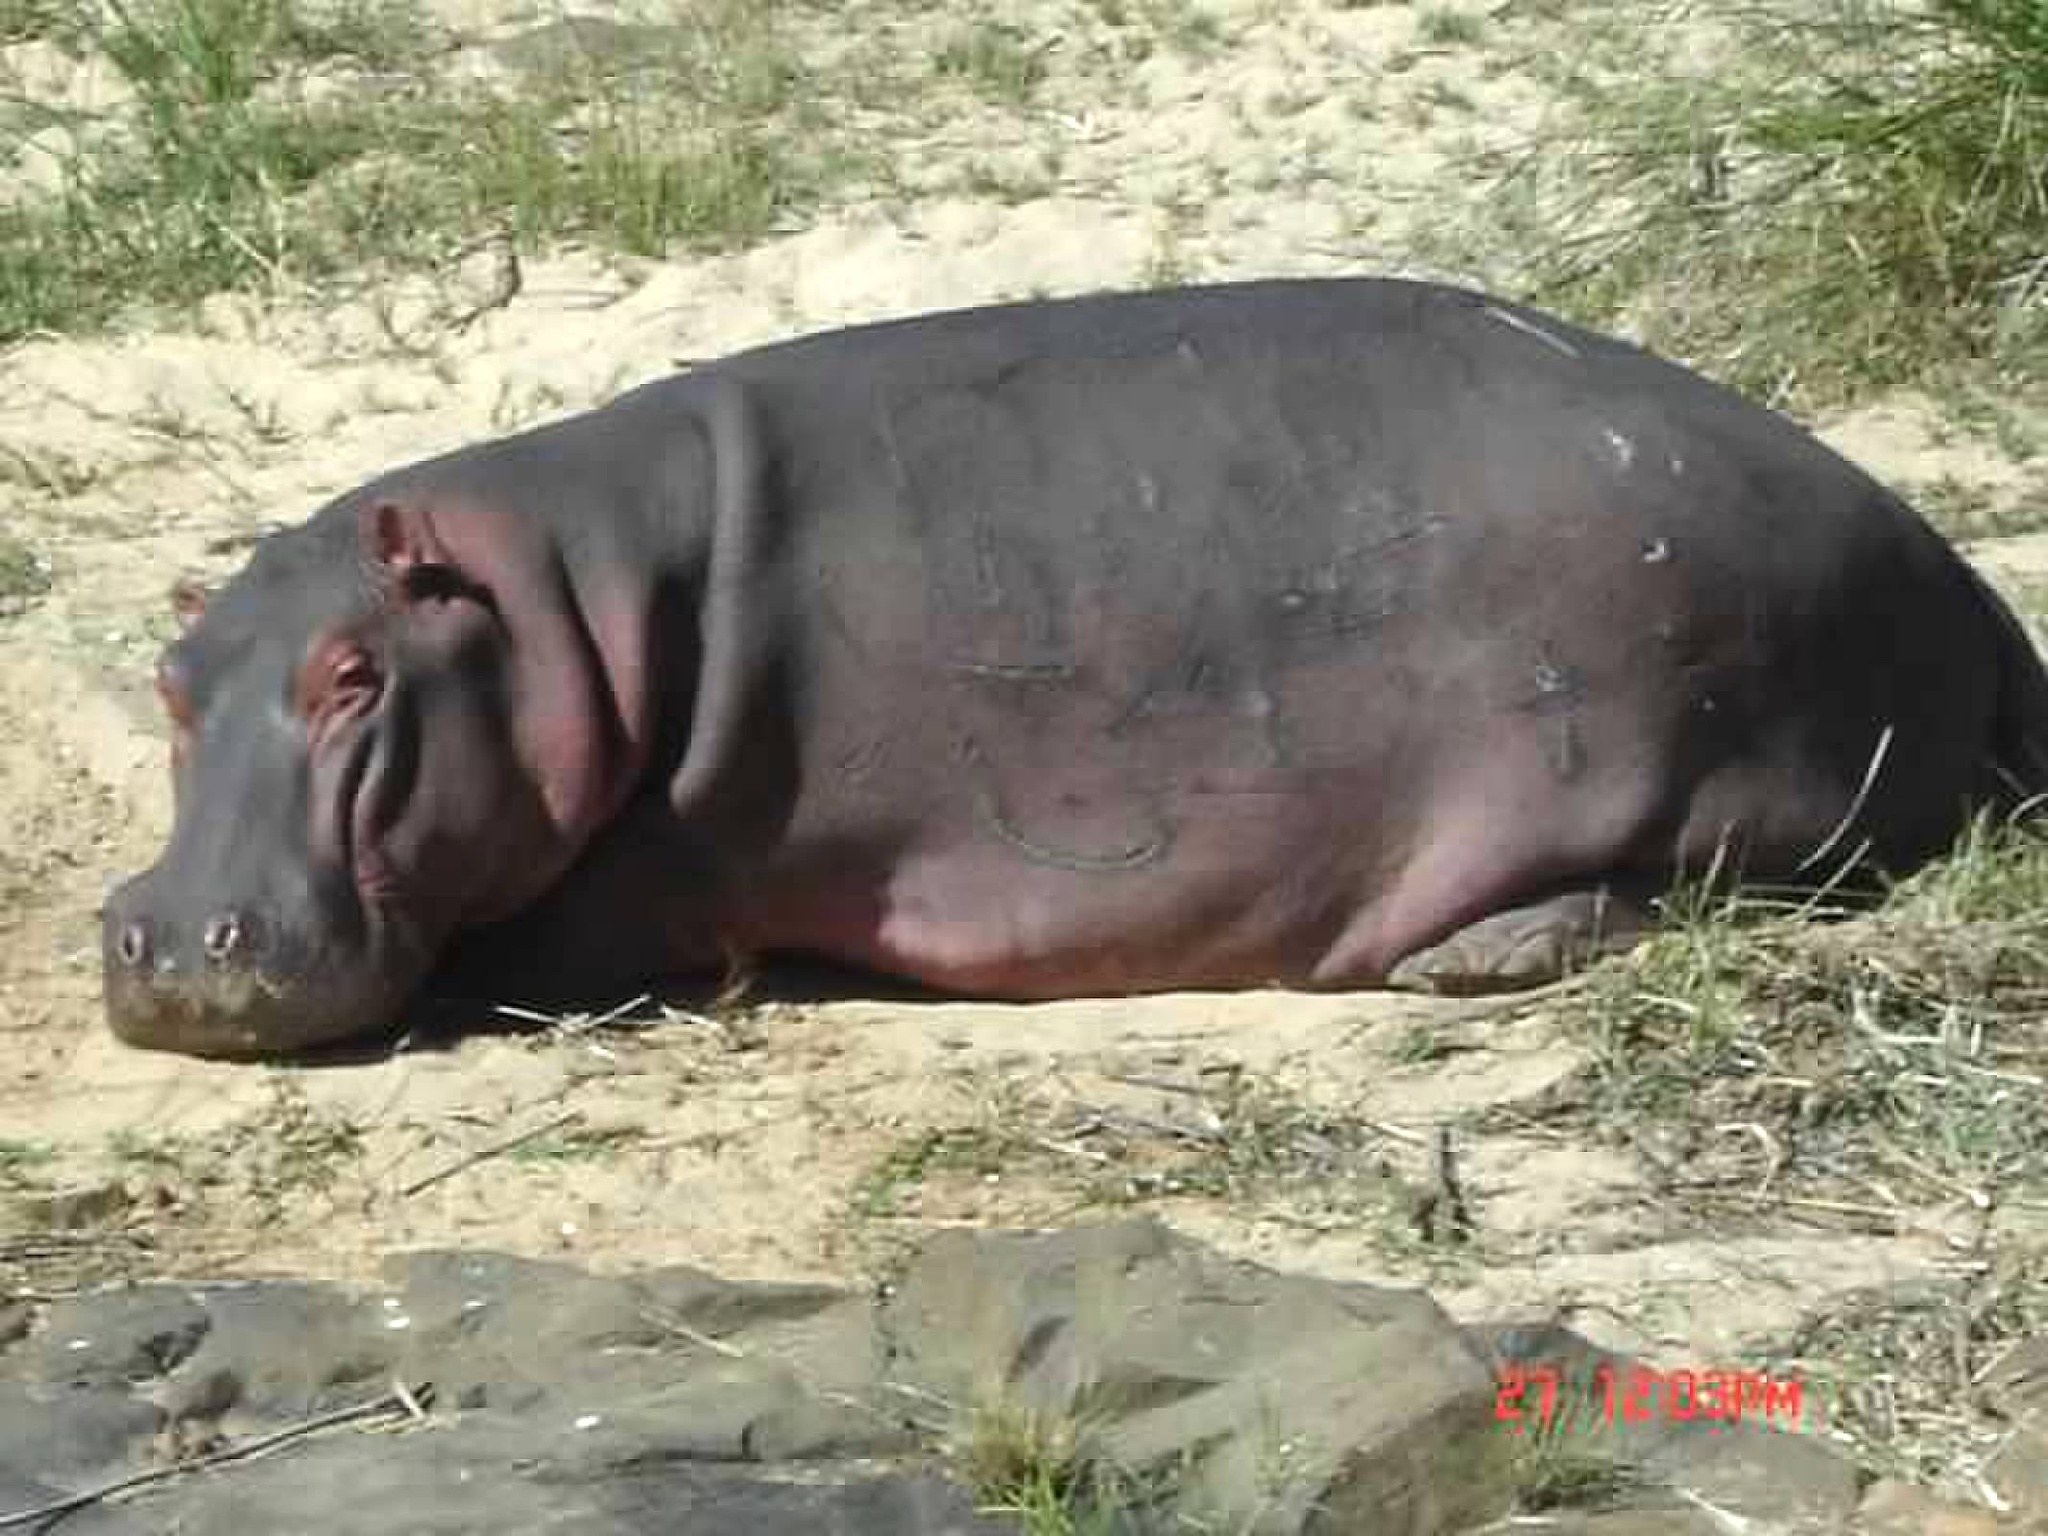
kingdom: Animalia
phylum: Chordata
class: Mammalia
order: Artiodactyla
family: Hippopotamidae
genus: Hippopotamus
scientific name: Hippopotamus amphibius
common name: Common hippopotamus
